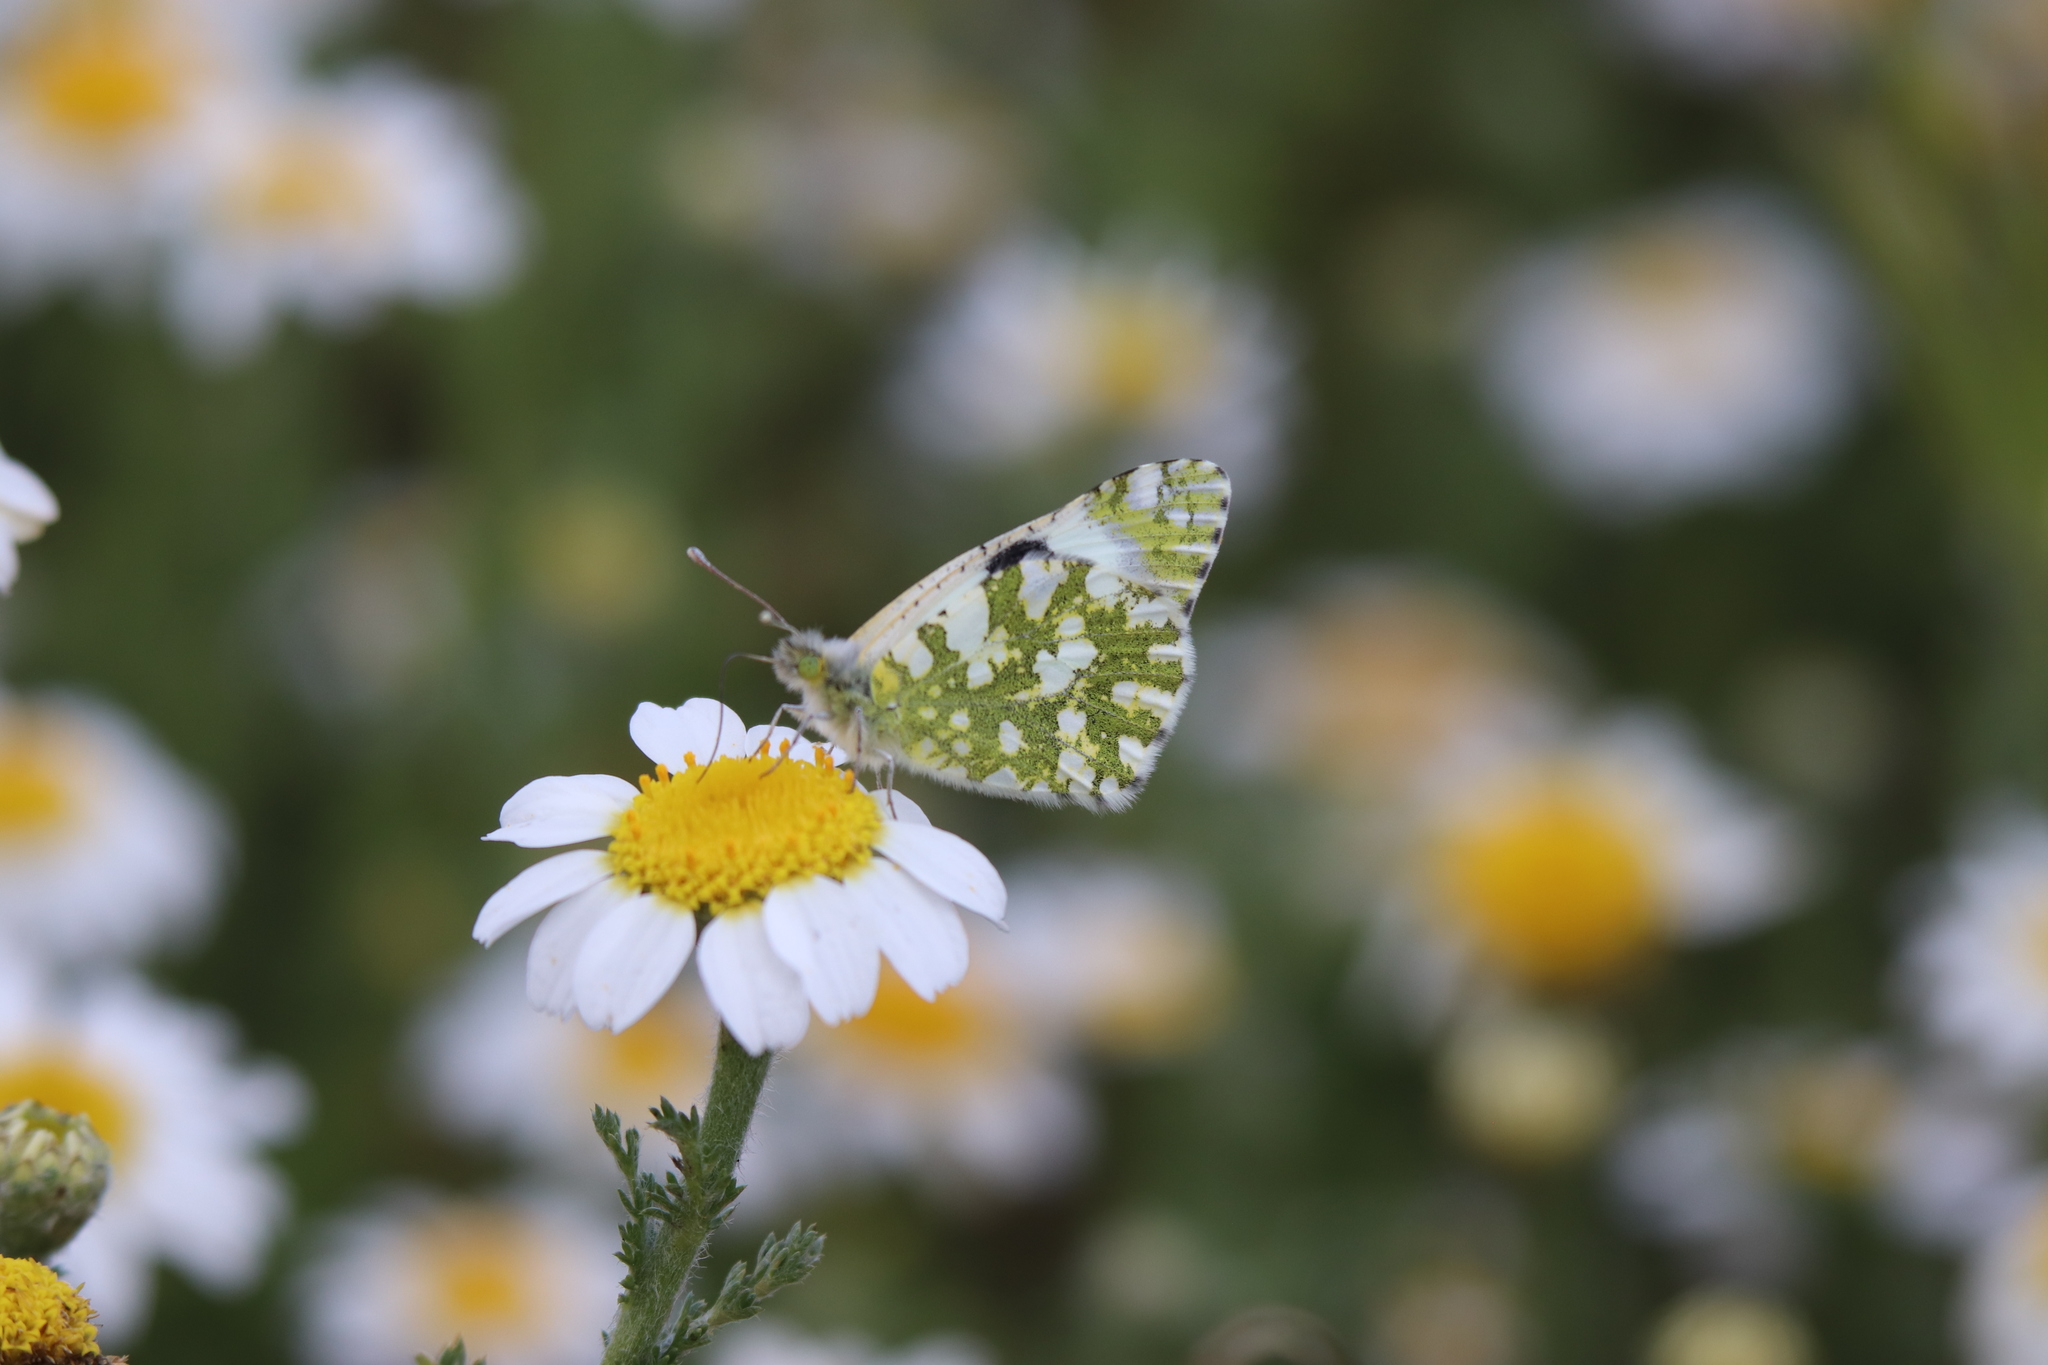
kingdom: Animalia
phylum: Arthropoda
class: Insecta
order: Lepidoptera
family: Pieridae
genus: Euchloe
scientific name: Euchloe crameri
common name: Western dappled white
